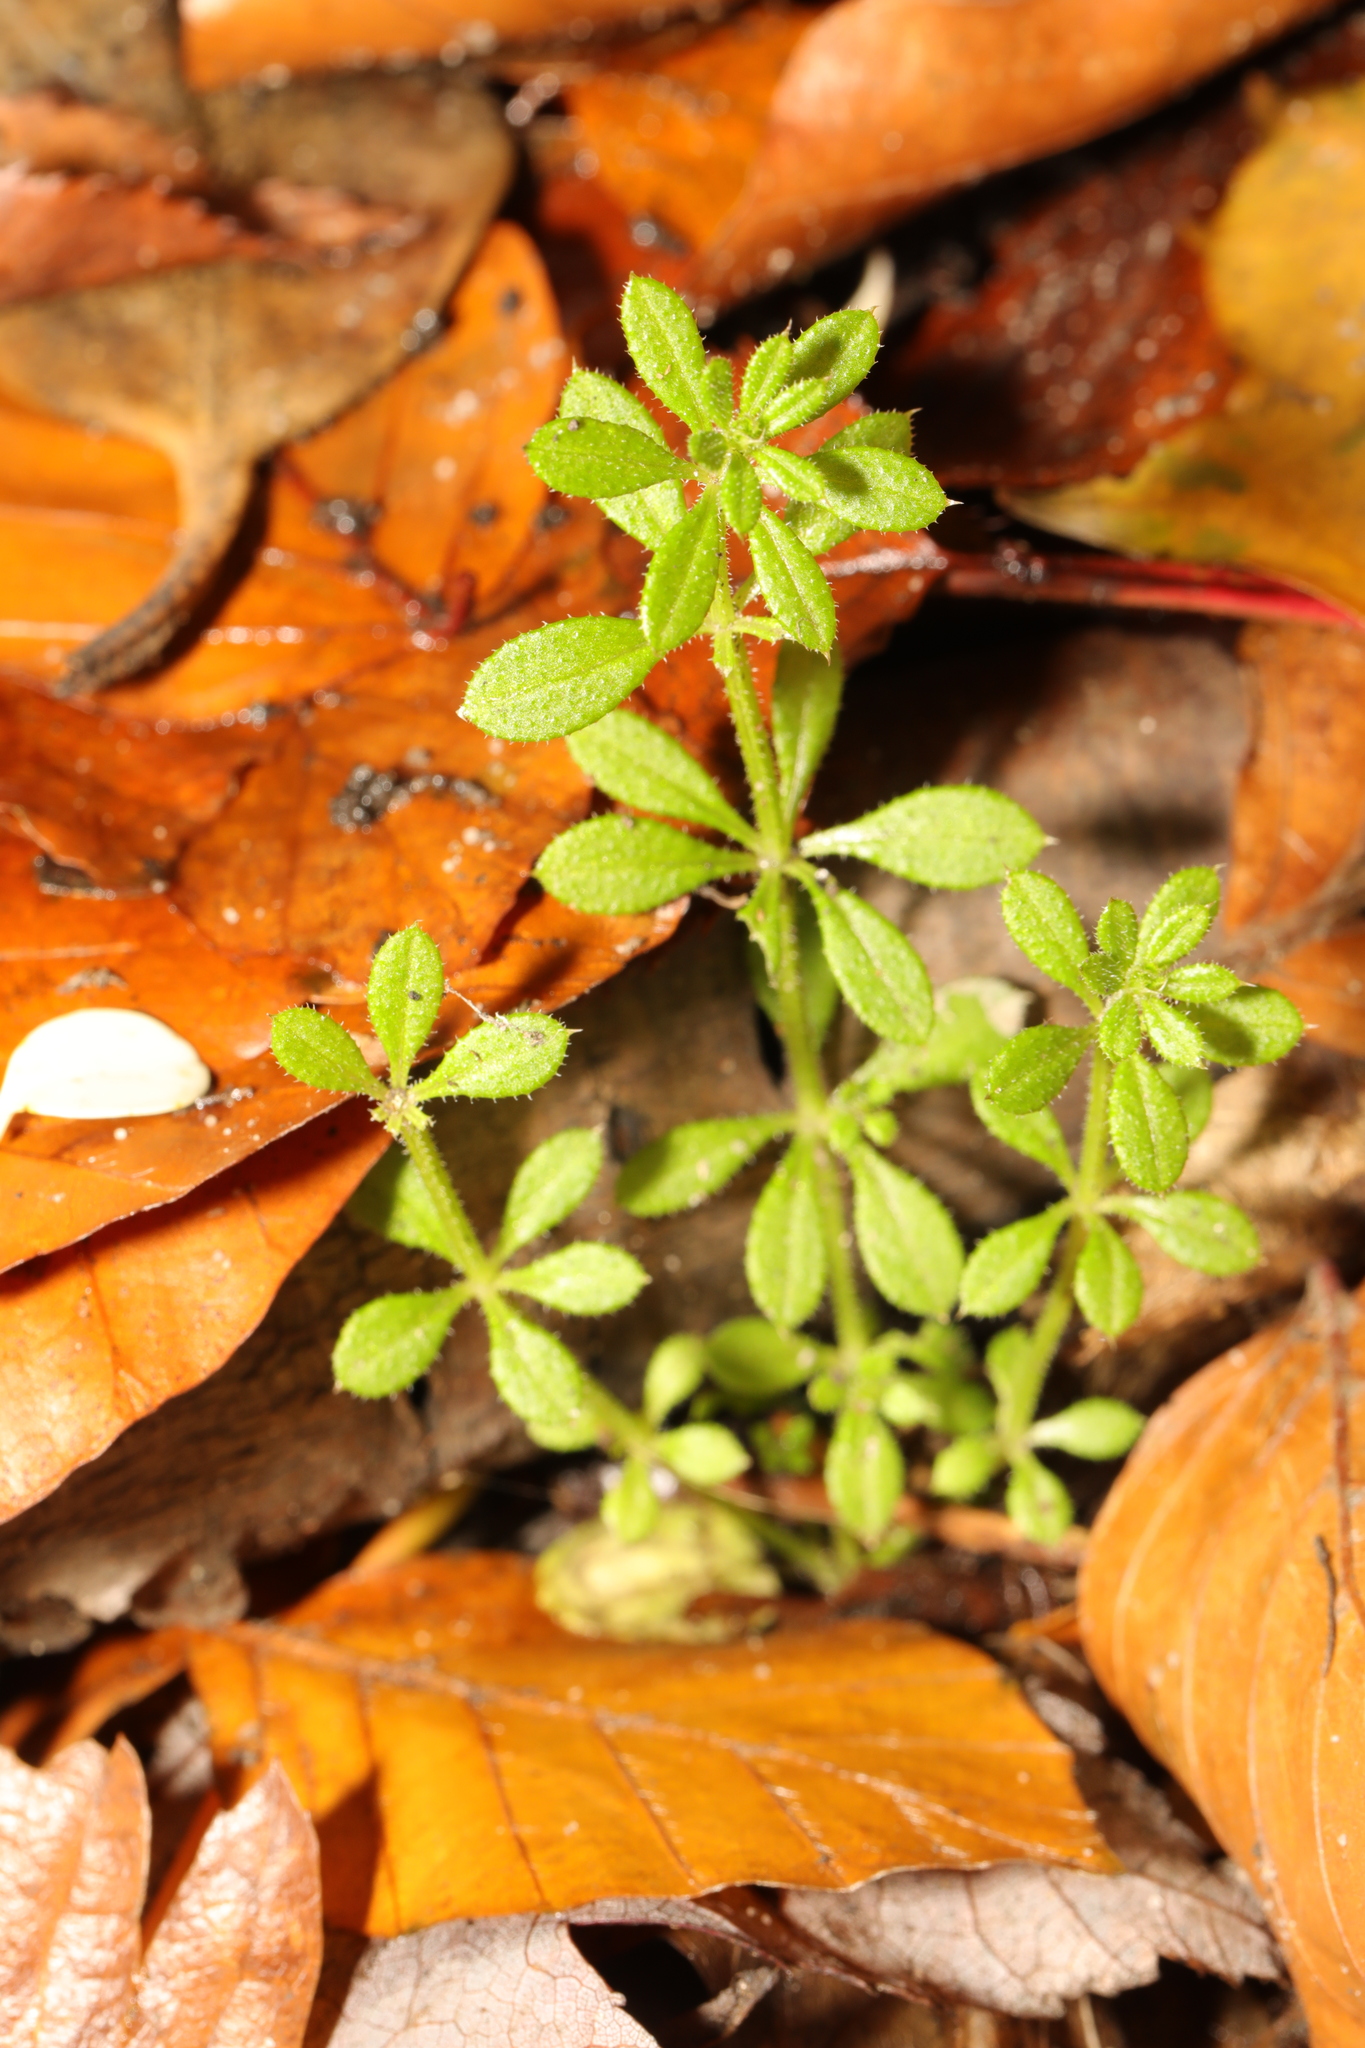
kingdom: Plantae
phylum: Tracheophyta
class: Magnoliopsida
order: Gentianales
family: Rubiaceae
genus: Galium
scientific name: Galium aparine
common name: Cleavers
